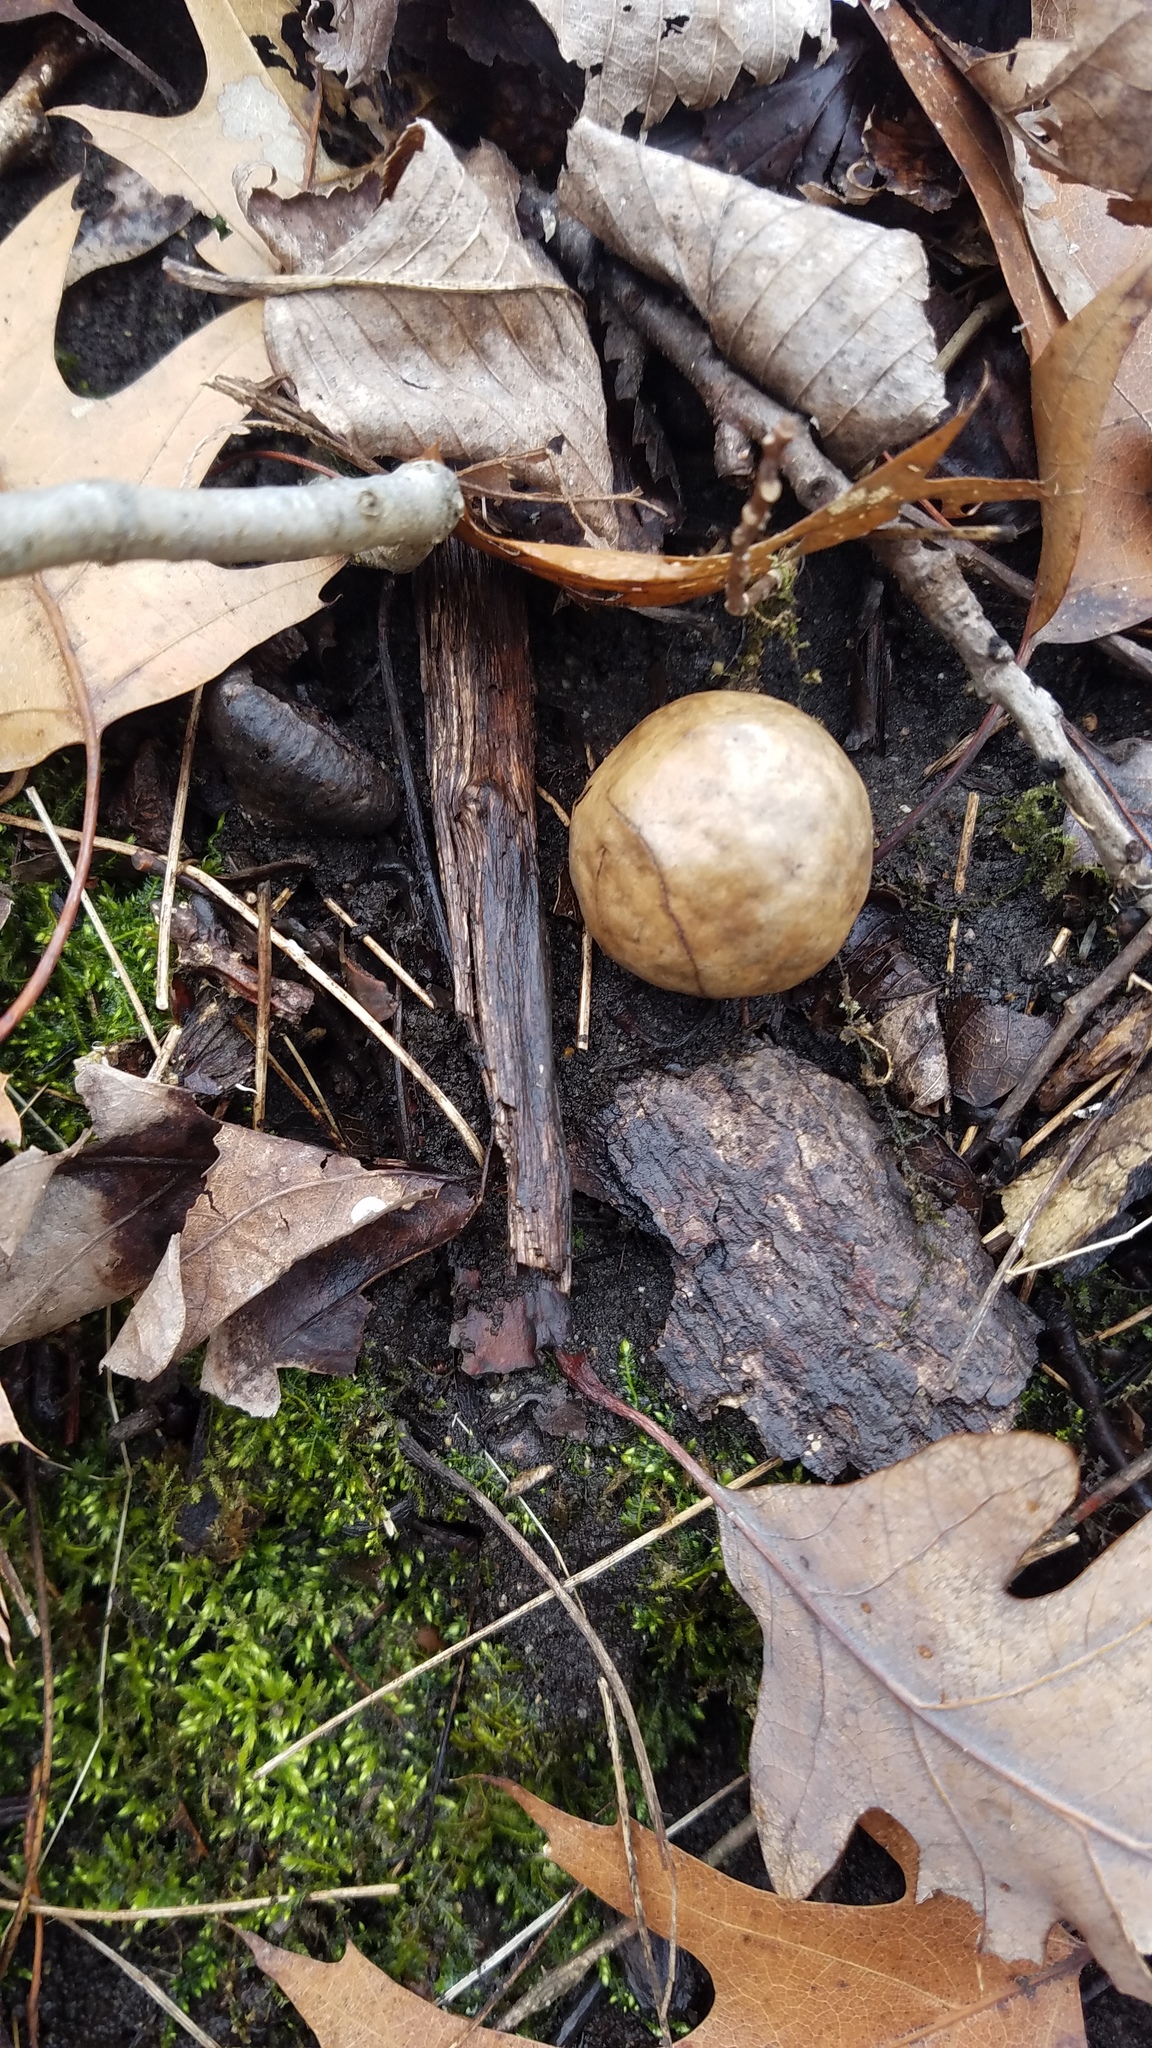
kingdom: Animalia
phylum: Arthropoda
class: Insecta
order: Hymenoptera
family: Cynipidae
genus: Amphibolips
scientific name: Amphibolips
